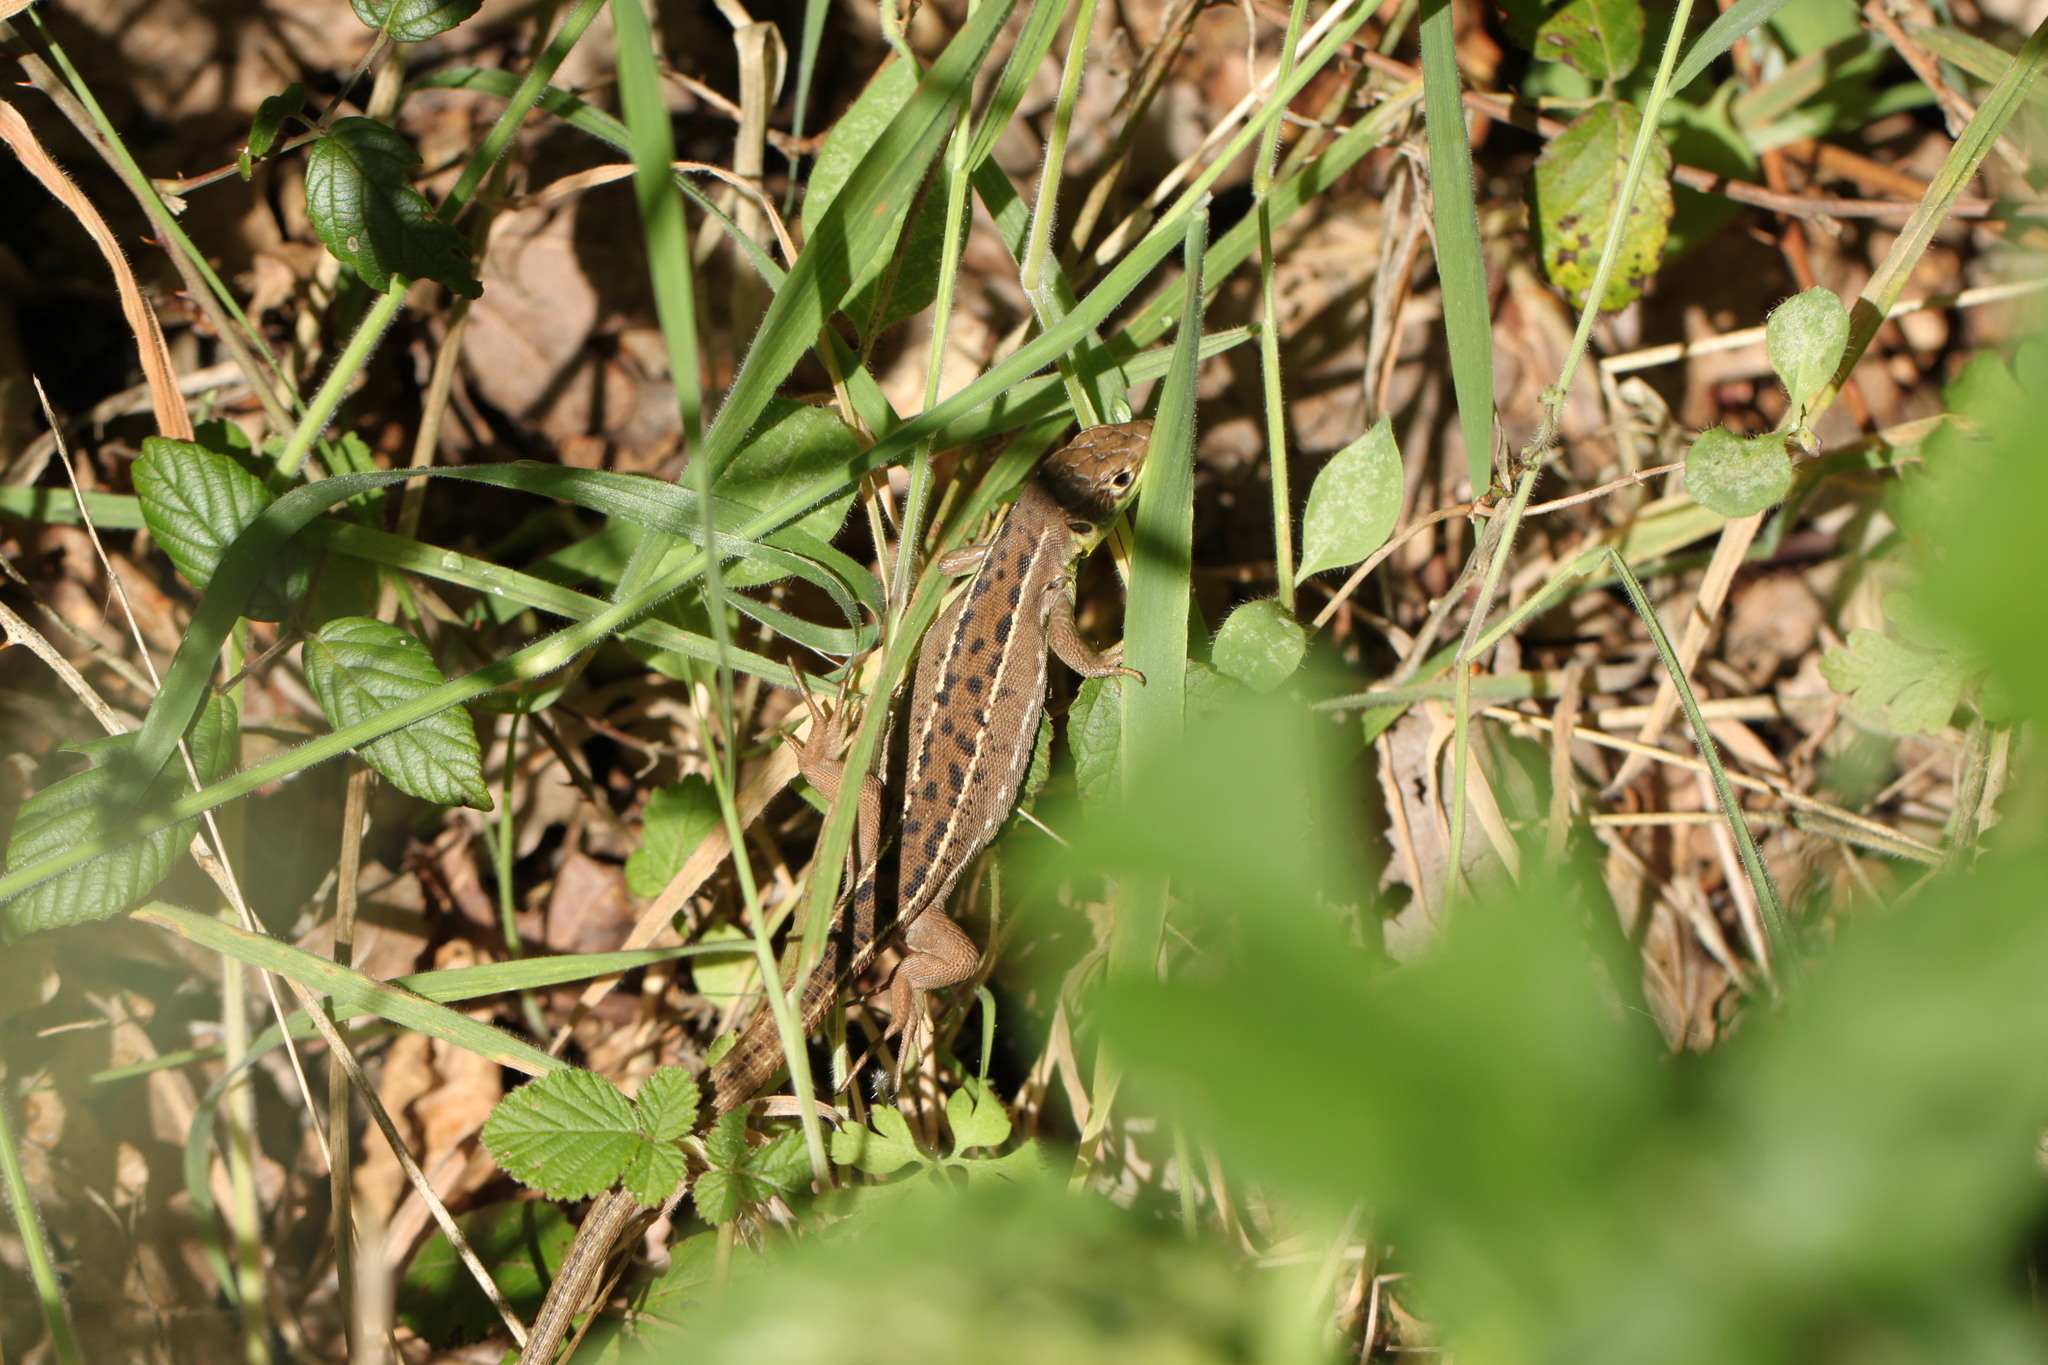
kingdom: Animalia
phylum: Chordata
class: Squamata
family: Lacertidae
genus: Lacerta
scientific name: Lacerta bilineata
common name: Western green lizard
